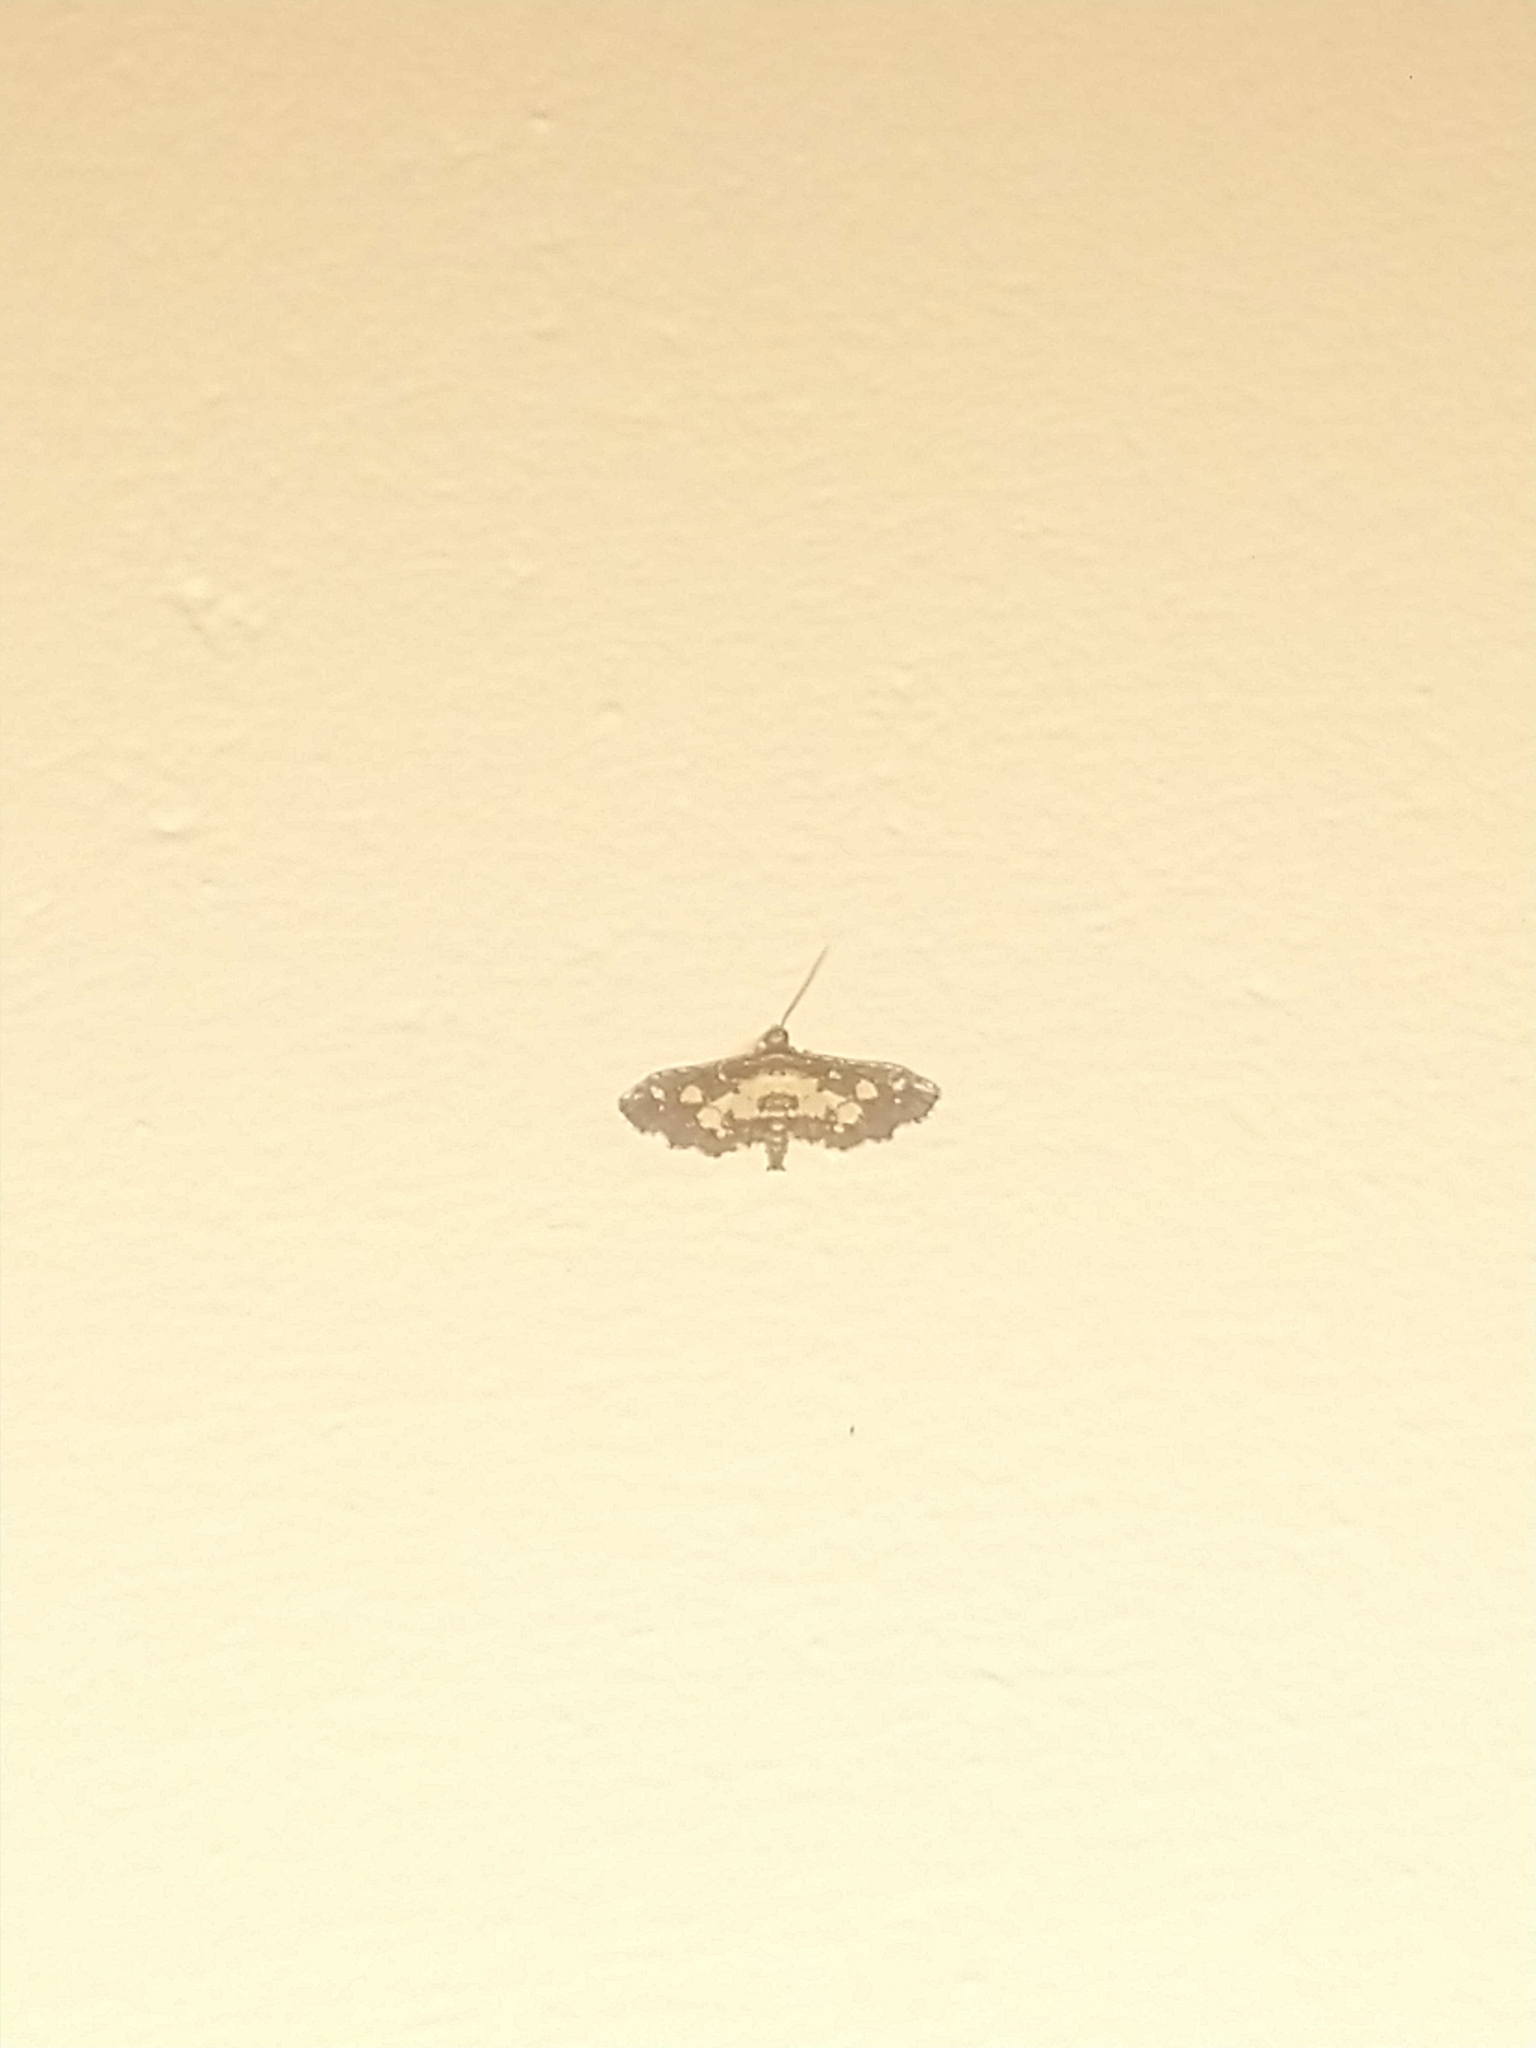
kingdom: Animalia
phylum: Arthropoda
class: Insecta
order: Lepidoptera
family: Crambidae
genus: Eurrhyparodes
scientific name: Eurrhyparodes bracteolalis
